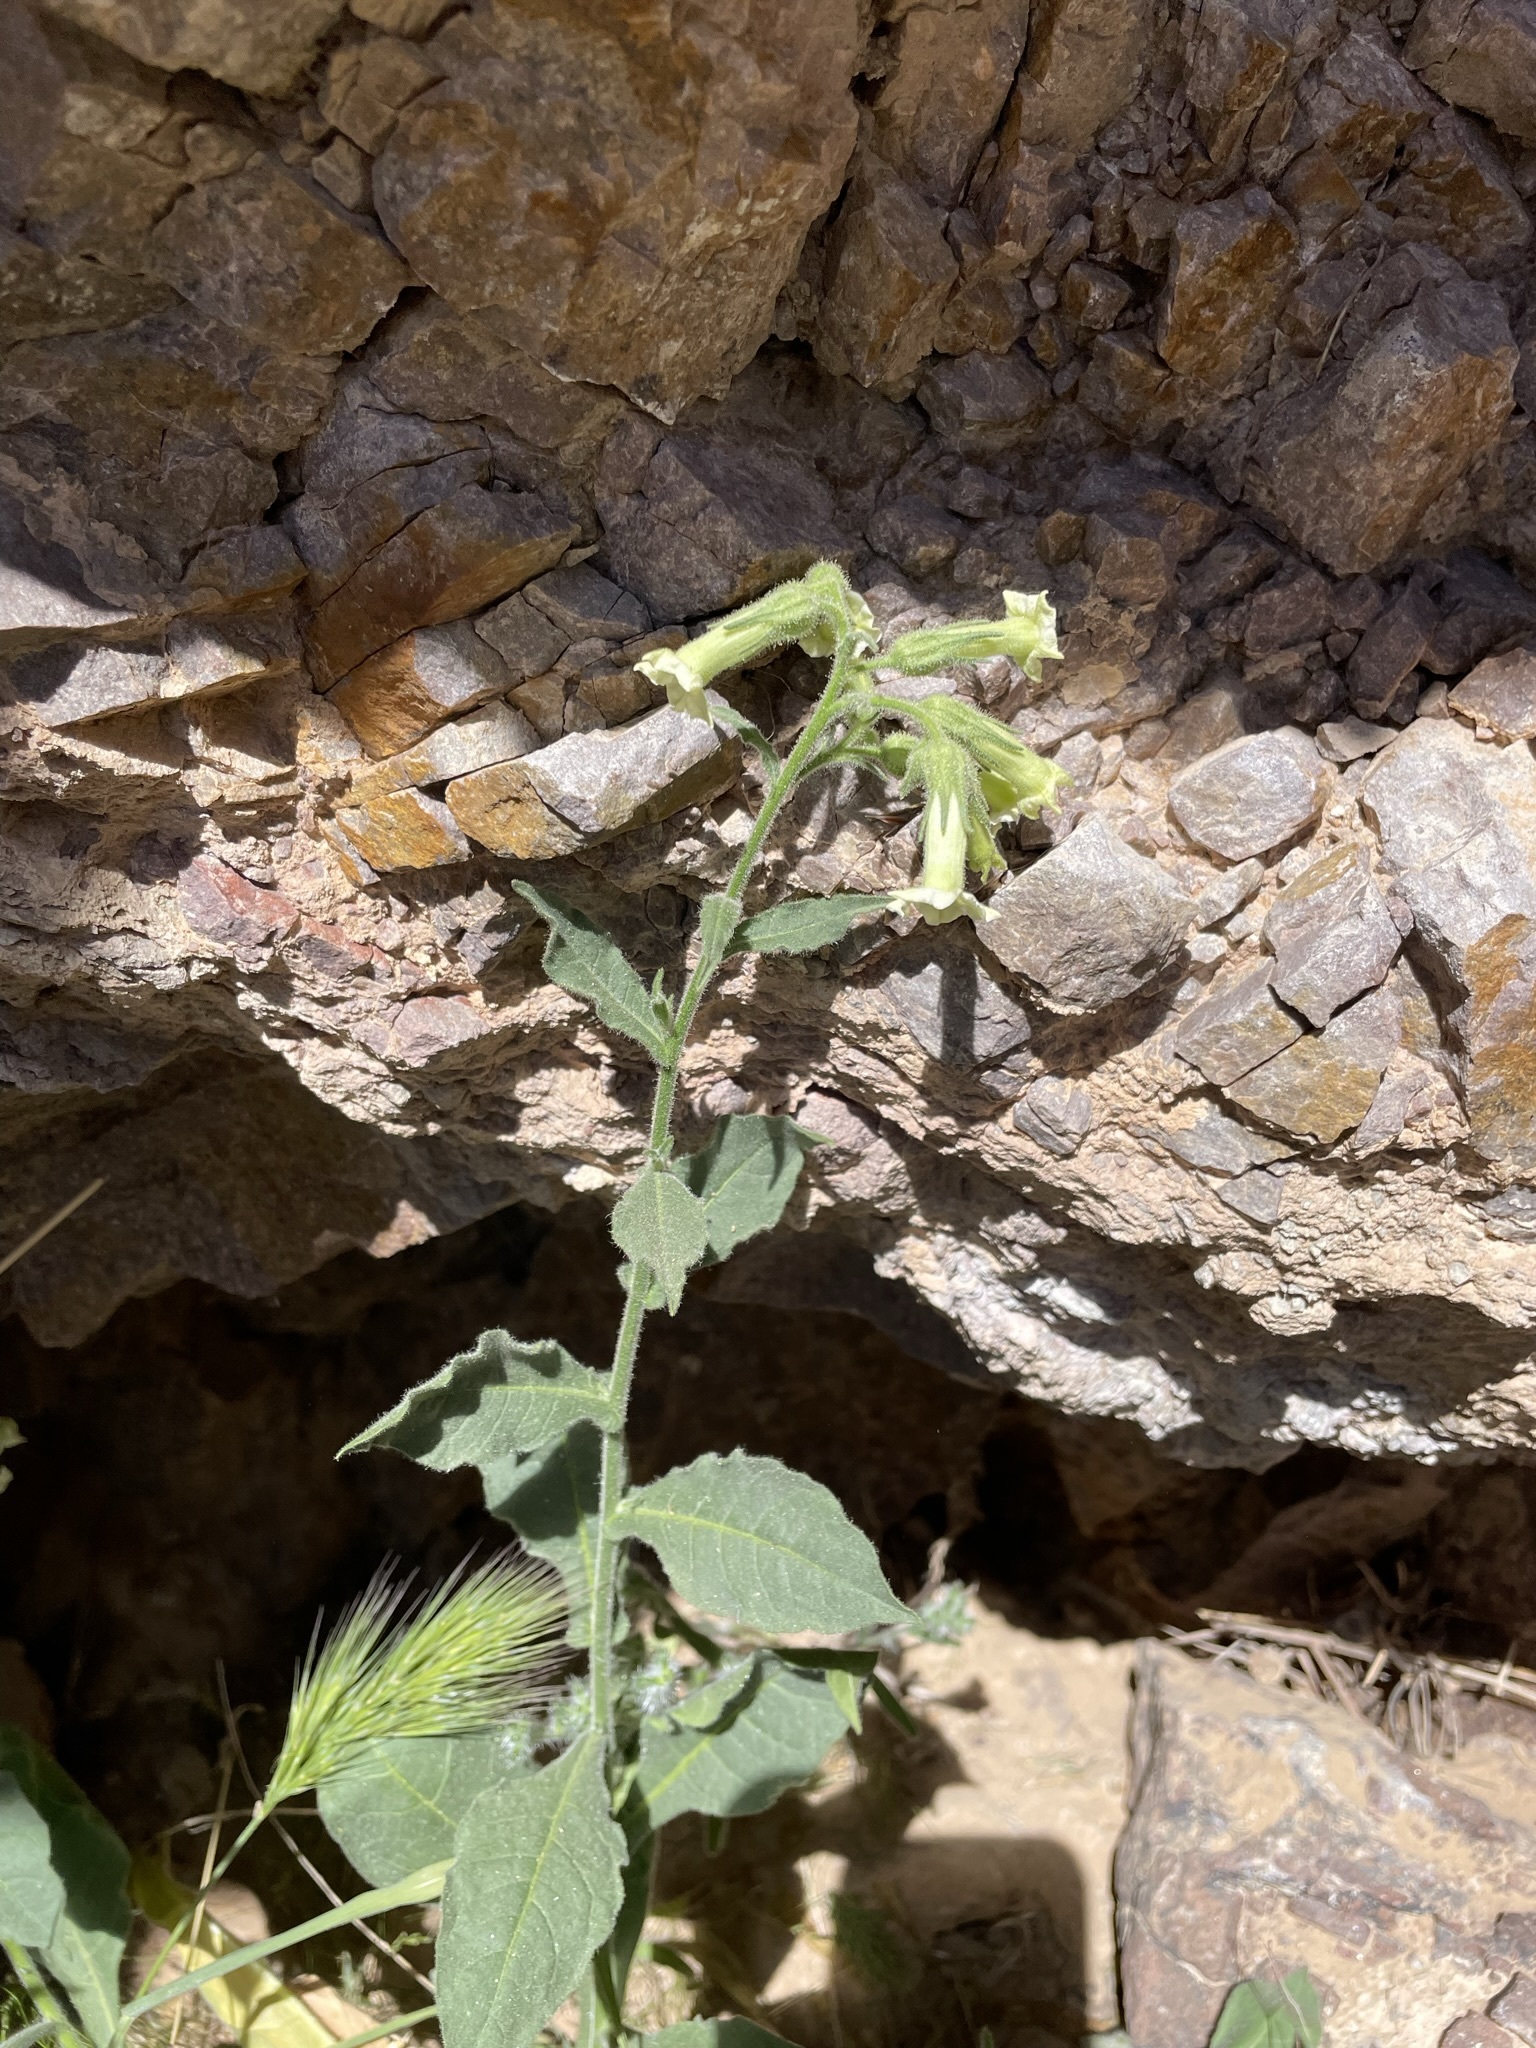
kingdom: Plantae
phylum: Tracheophyta
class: Magnoliopsida
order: Solanales
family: Solanaceae
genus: Nicotiana
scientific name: Nicotiana obtusifolia
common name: Desert tobacco
